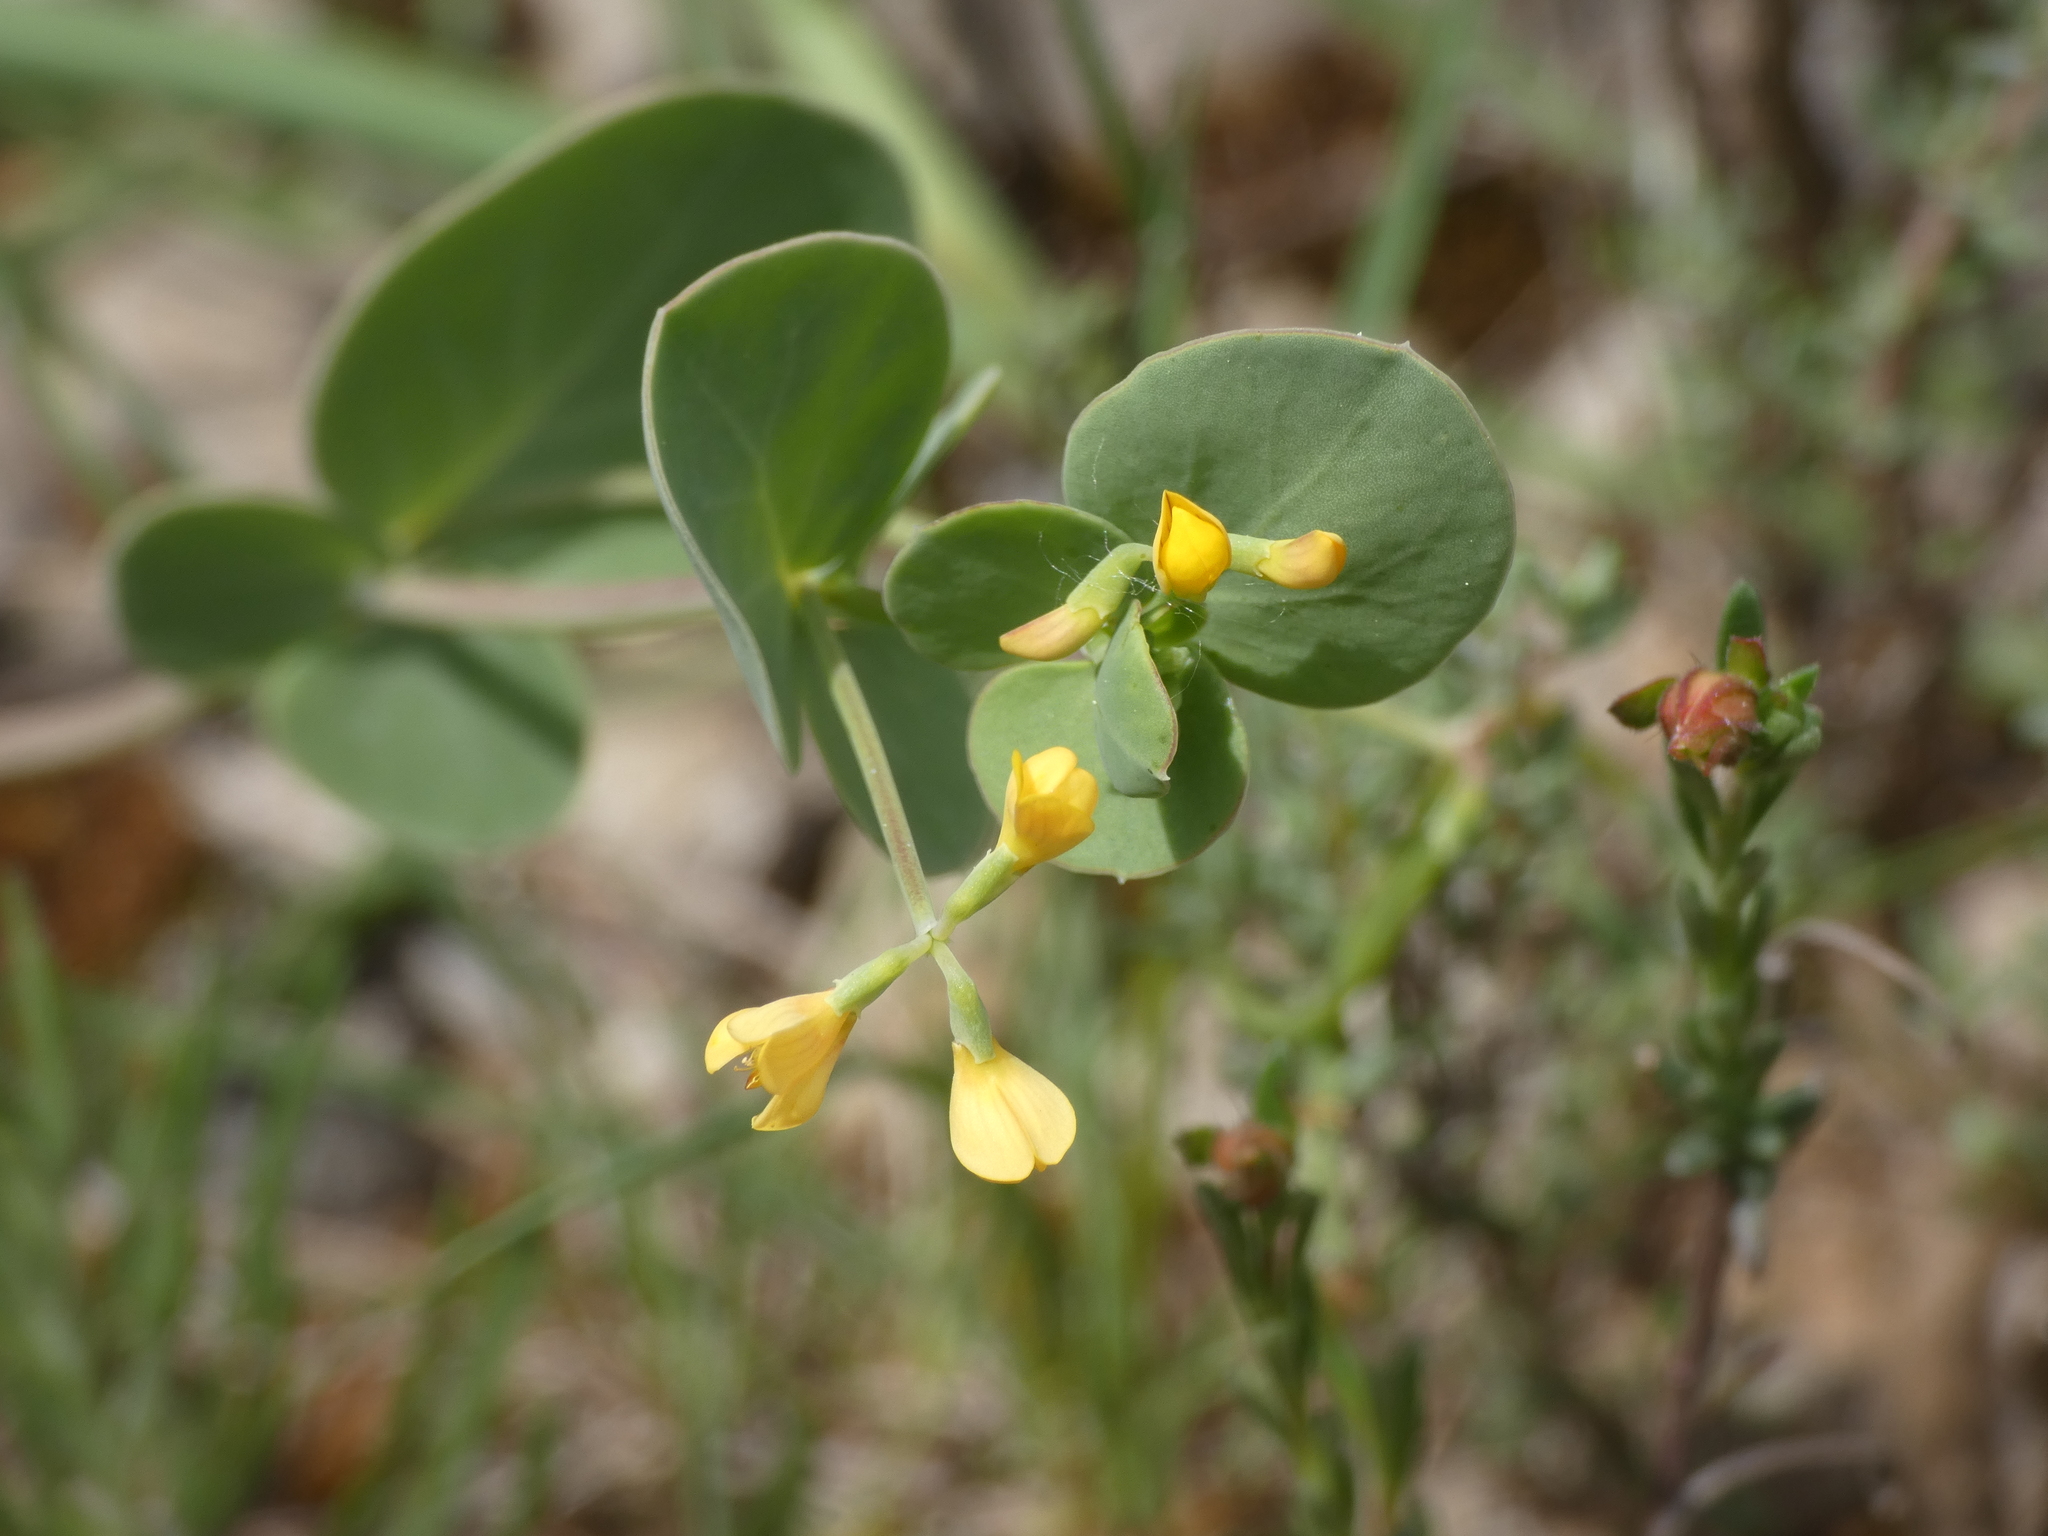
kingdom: Plantae
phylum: Tracheophyta
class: Magnoliopsida
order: Fabales
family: Fabaceae
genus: Coronilla
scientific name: Coronilla scorpioides
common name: Annual scorpion-vetch
